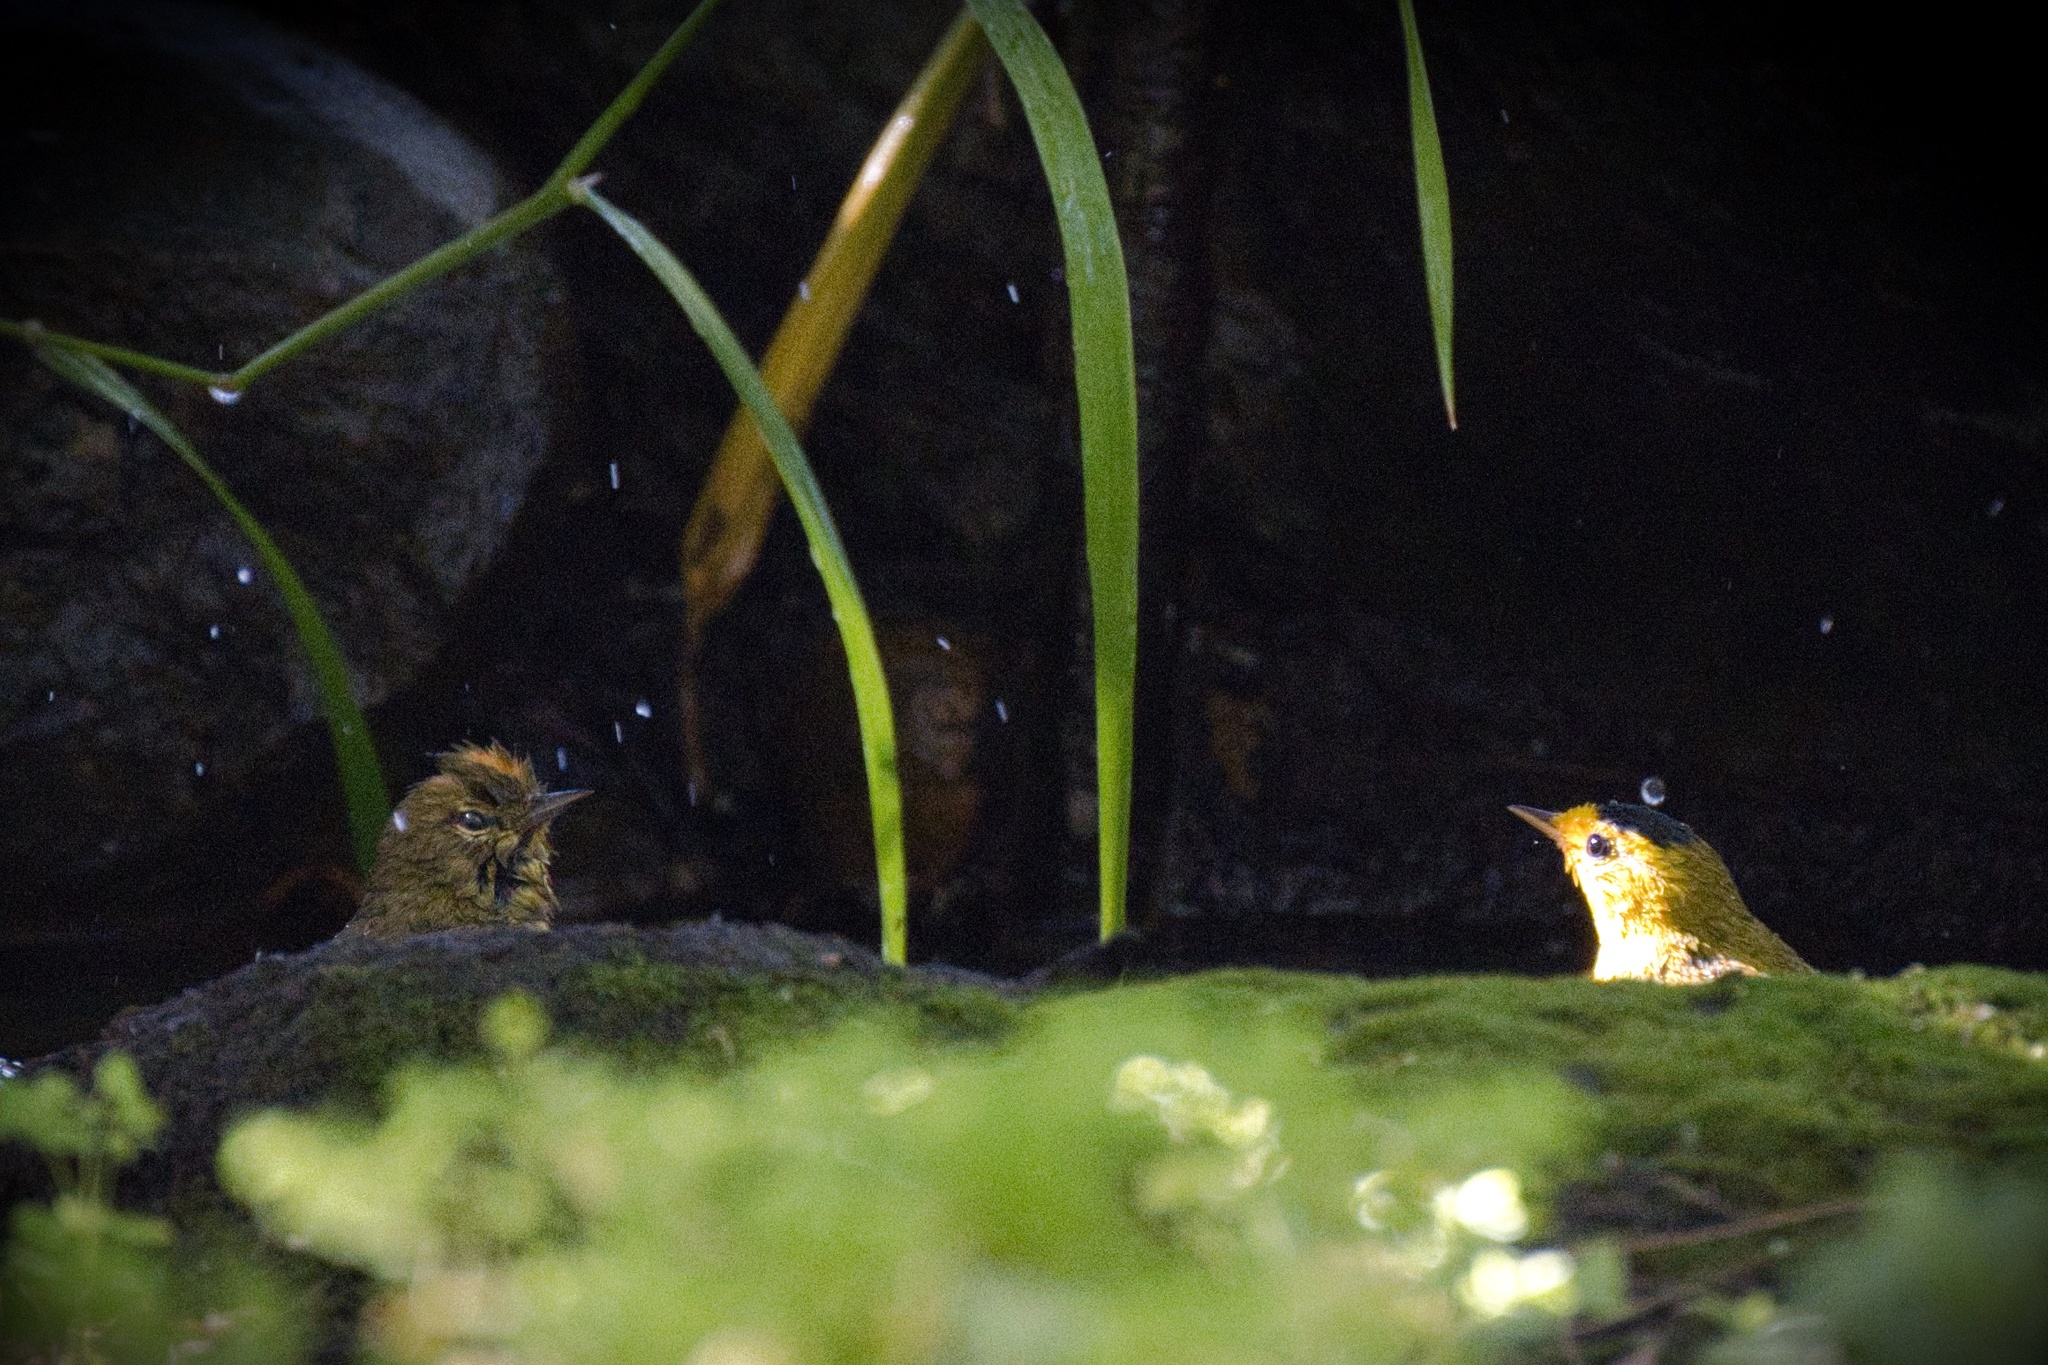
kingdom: Animalia
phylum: Chordata
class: Aves
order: Passeriformes
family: Parulidae
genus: Cardellina
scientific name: Cardellina pusilla
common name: Wilson's warbler
